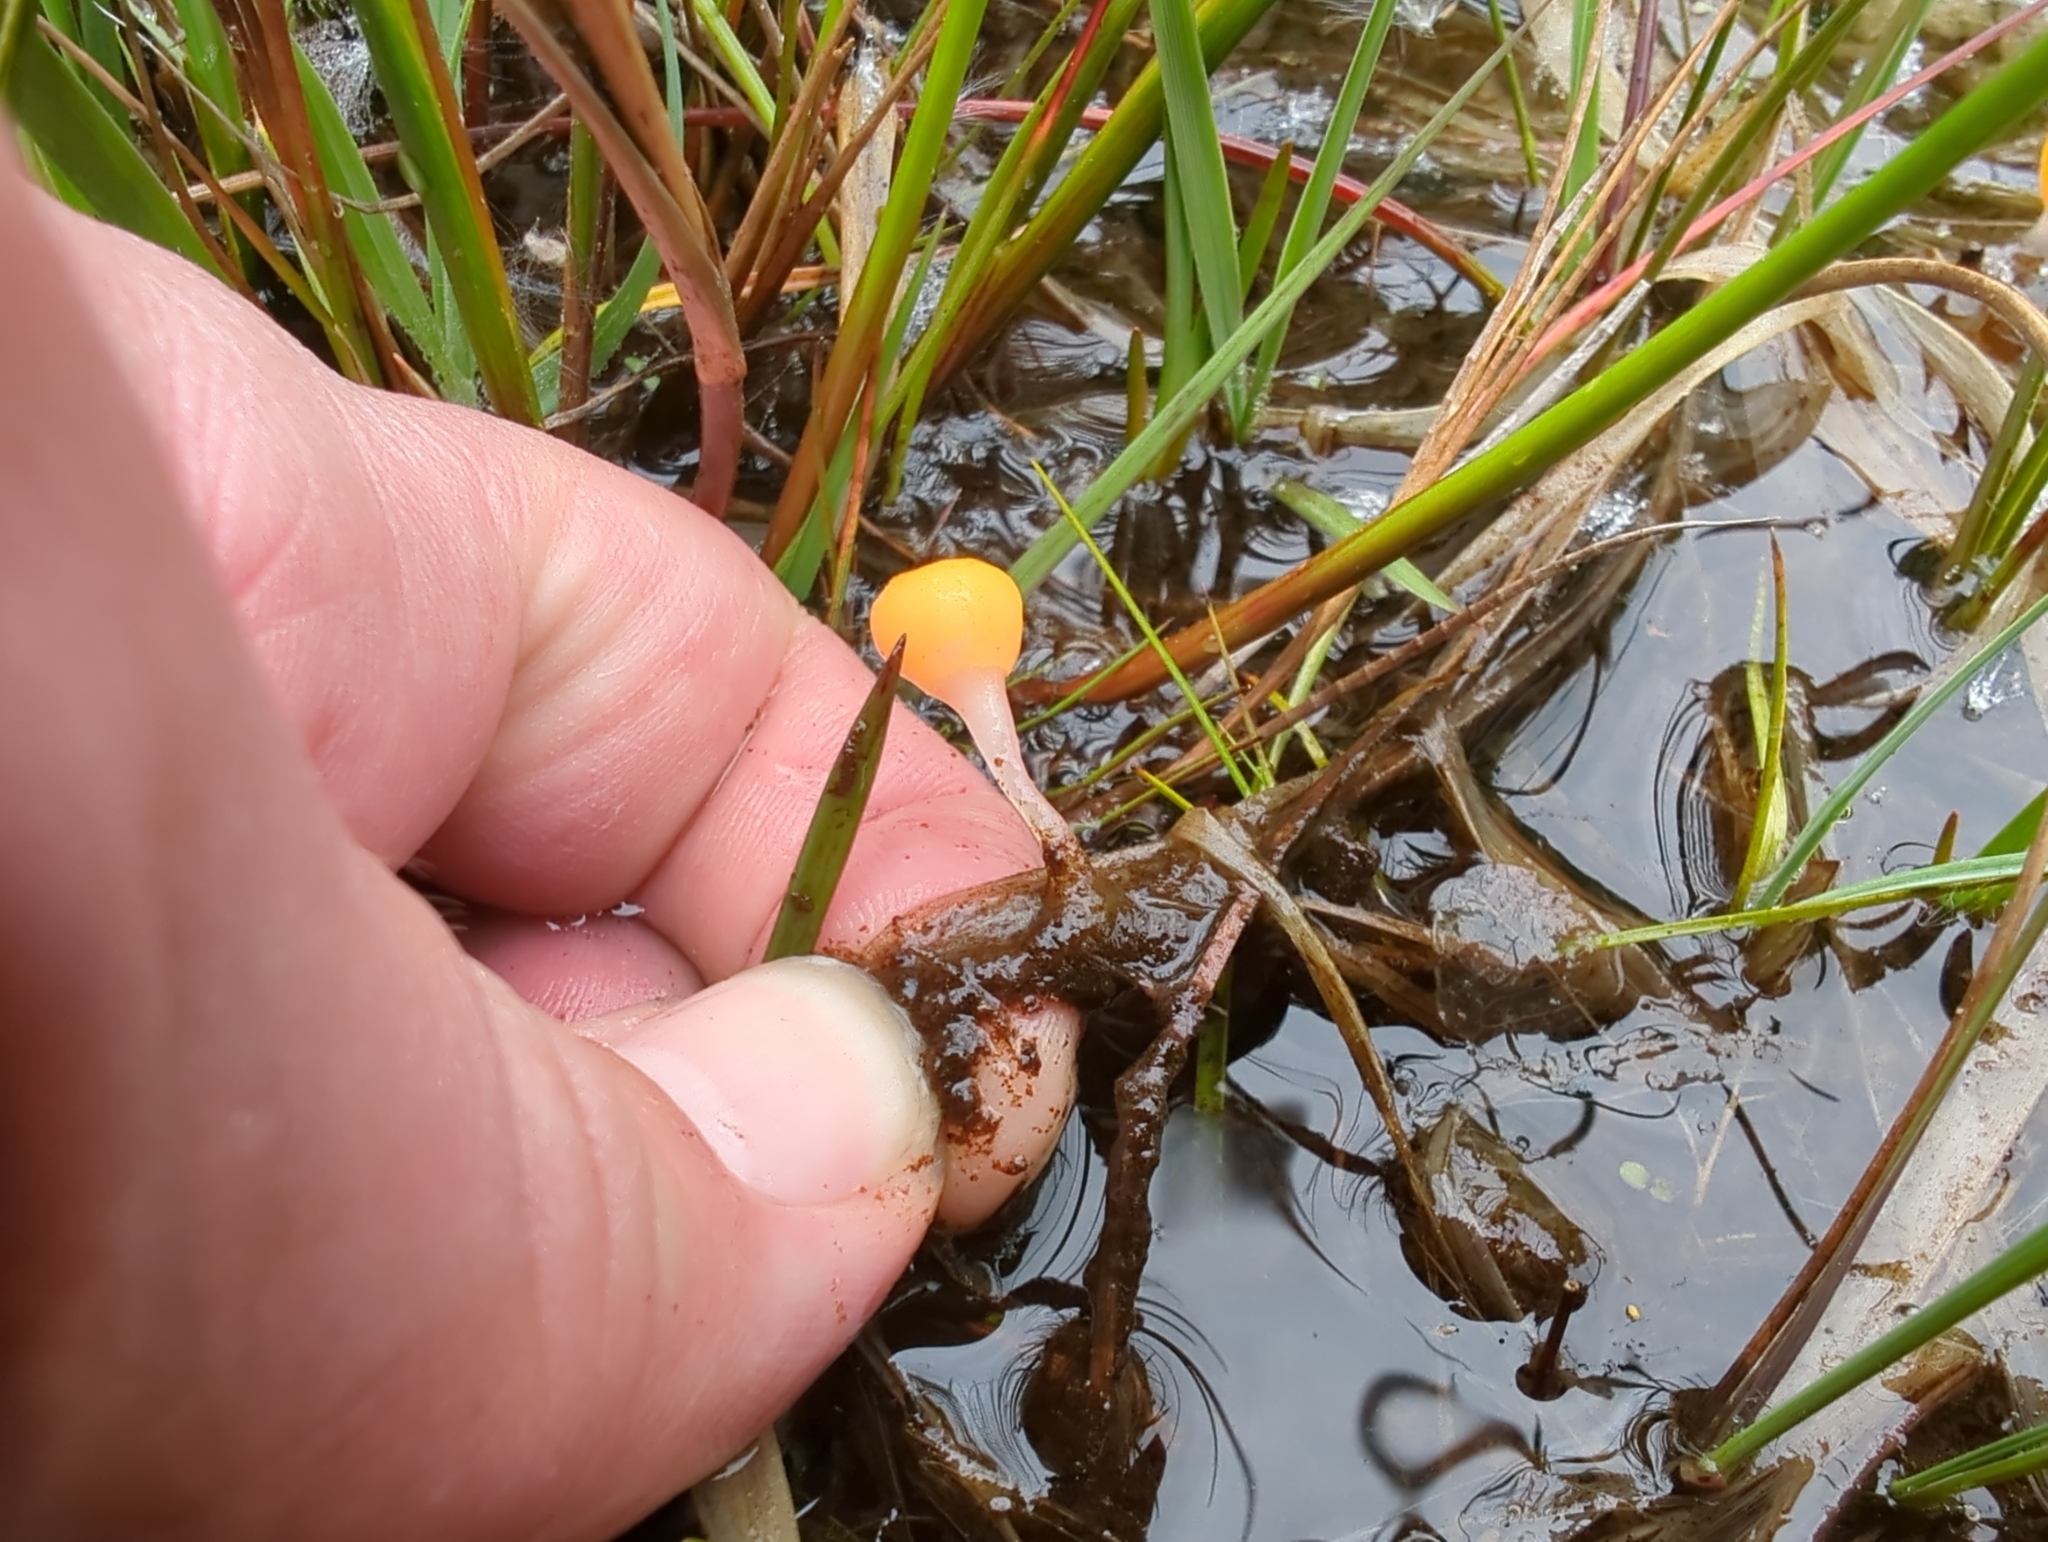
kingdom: Fungi
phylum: Ascomycota
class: Leotiomycetes
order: Helotiales
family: Cenangiaceae
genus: Mitrula
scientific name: Mitrula paludosa
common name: Bog beacon
